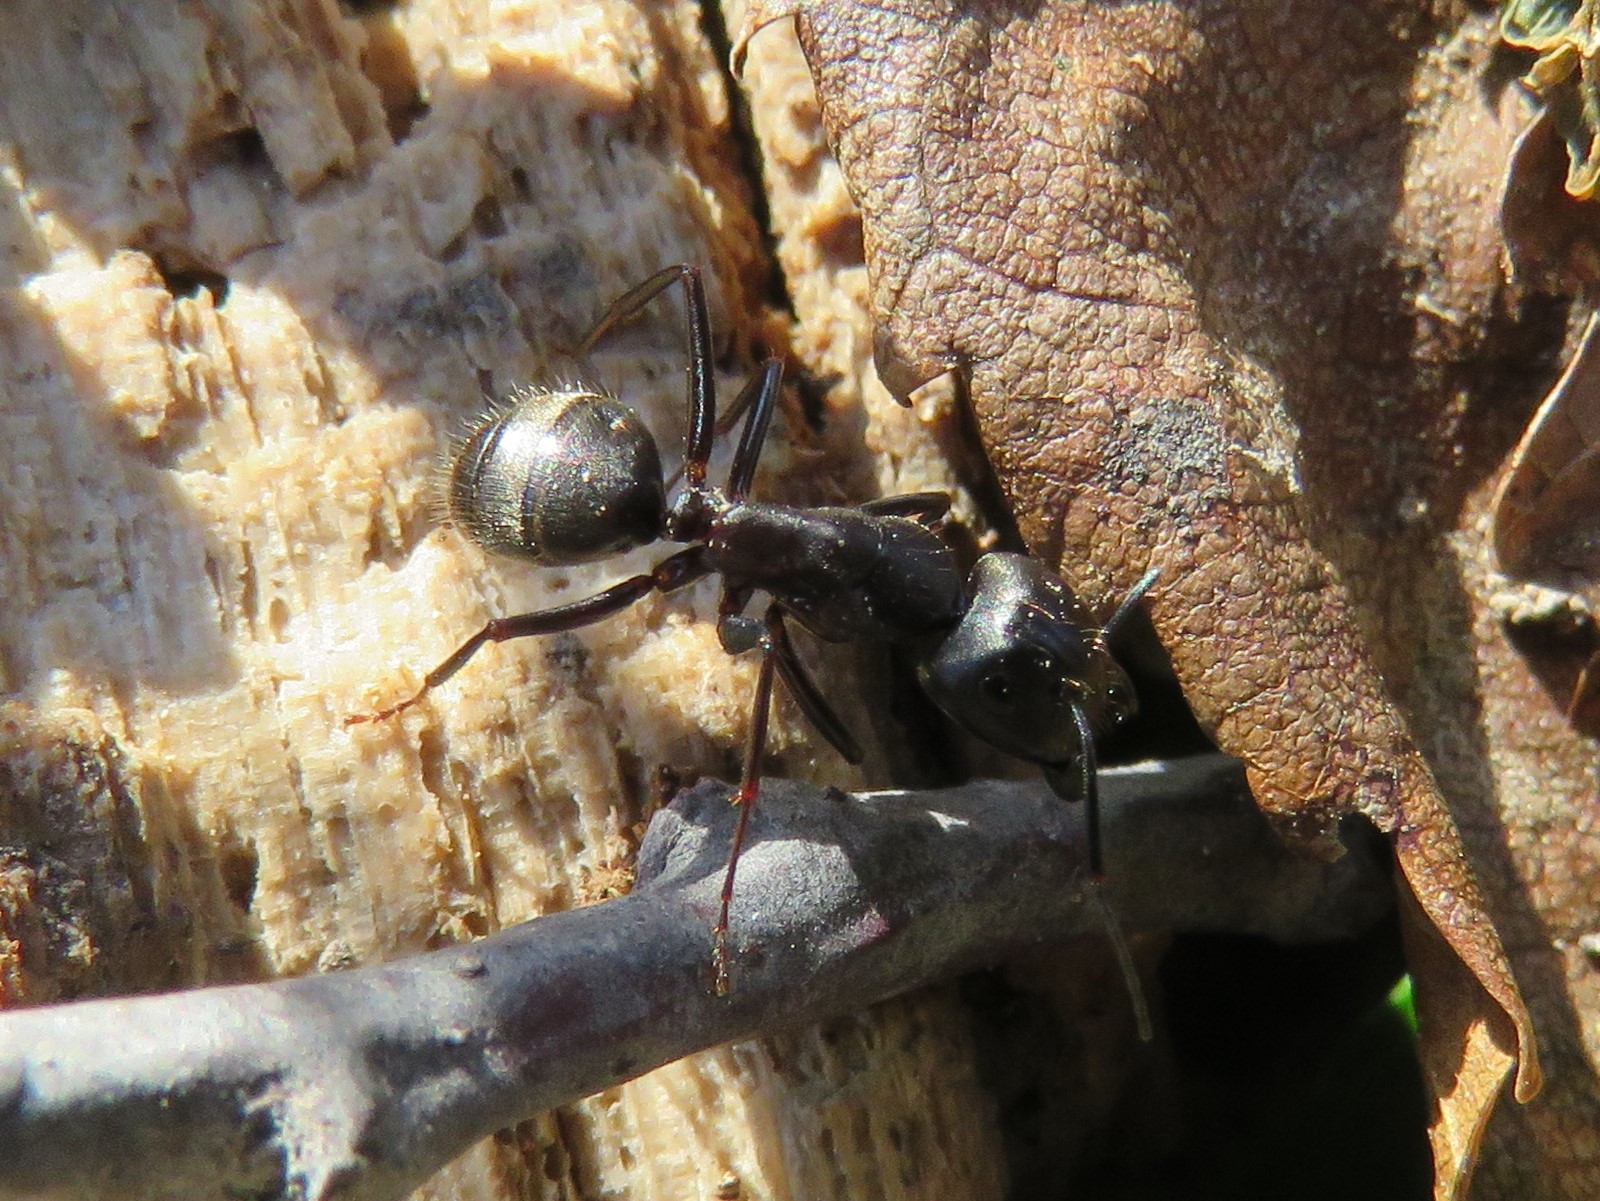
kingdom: Animalia
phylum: Arthropoda
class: Insecta
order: Hymenoptera
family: Formicidae
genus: Camponotus
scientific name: Camponotus pennsylvanicus
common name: Black carpenter ant
